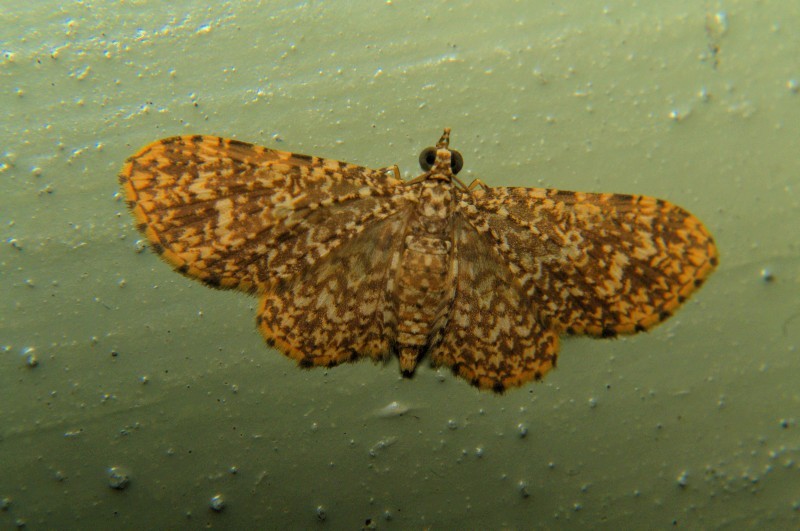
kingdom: Animalia
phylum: Arthropoda
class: Insecta
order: Lepidoptera
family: Geometridae
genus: Pomasia
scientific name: Pomasia denticlathrata
